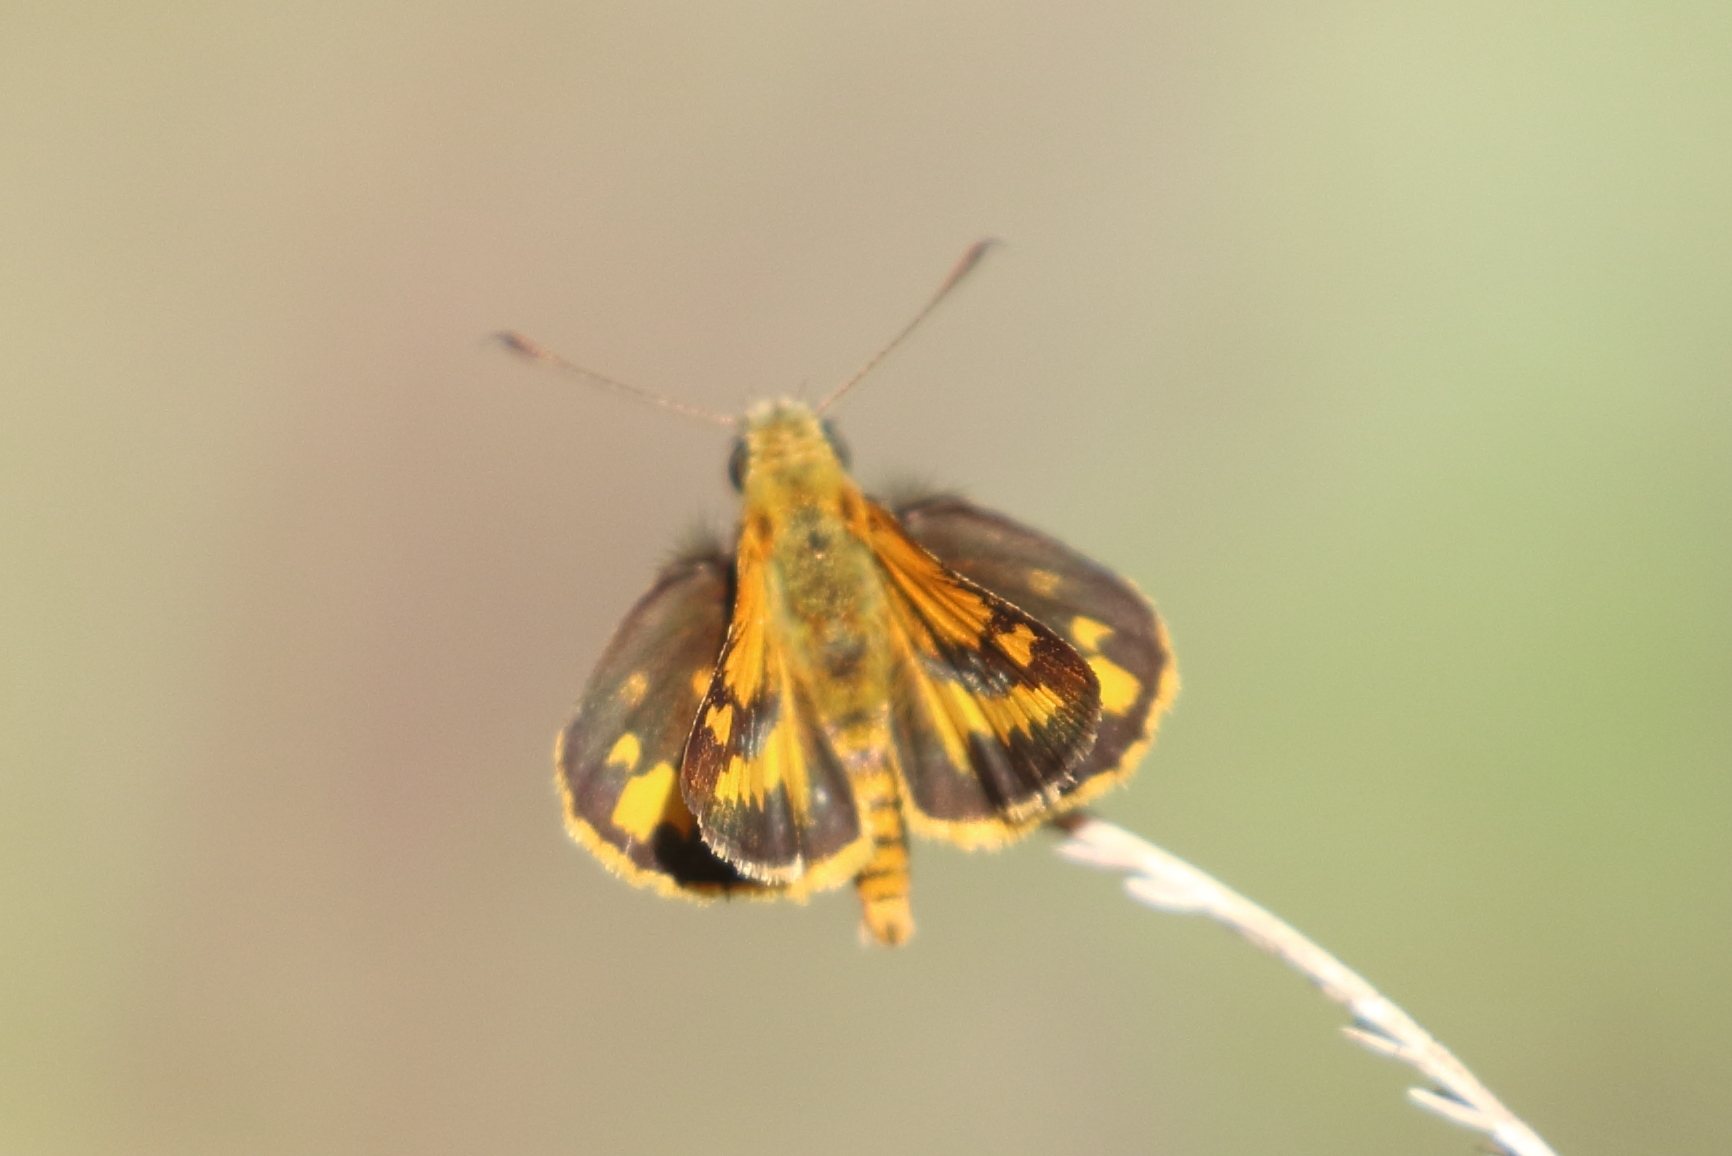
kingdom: Animalia
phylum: Arthropoda
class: Insecta
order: Lepidoptera
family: Hesperiidae
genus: Suniana
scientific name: Suniana sunias
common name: Wide-brand grass-dart
